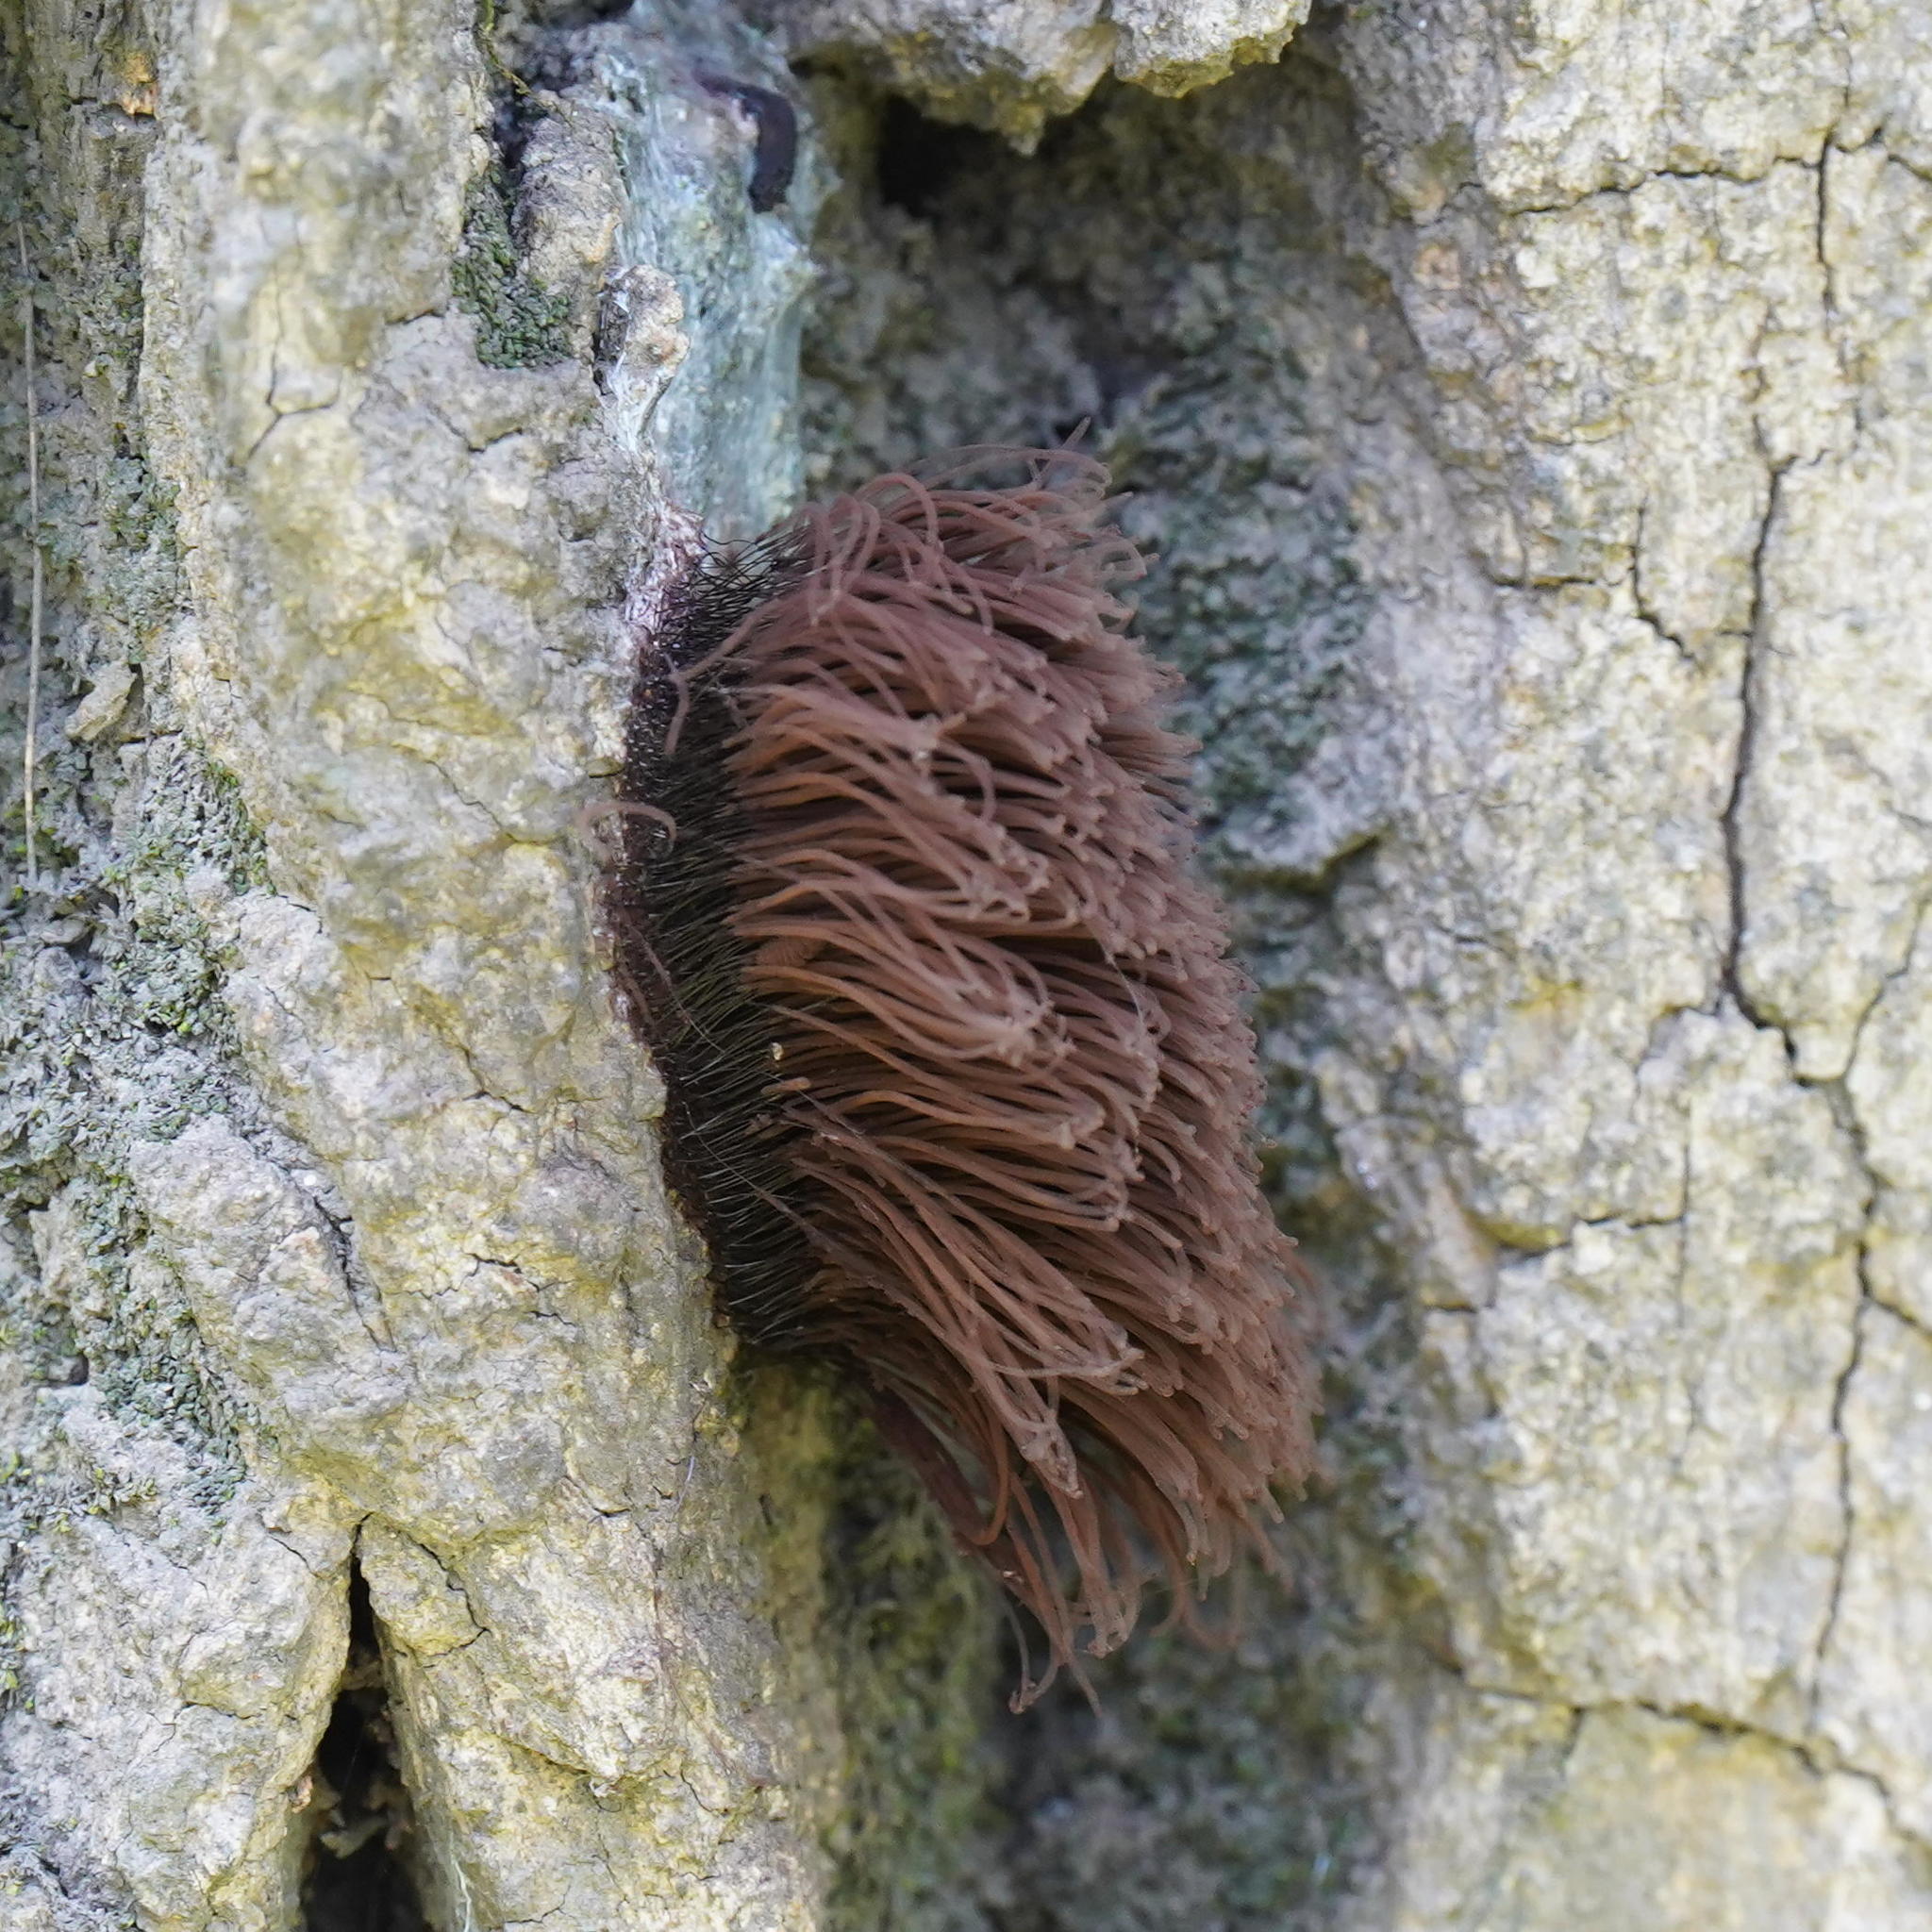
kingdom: Protozoa
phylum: Mycetozoa
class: Myxomycetes
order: Stemonitidales
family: Stemonitidaceae
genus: Stemonitis
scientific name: Stemonitis splendens
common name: Chocolate tube slime
